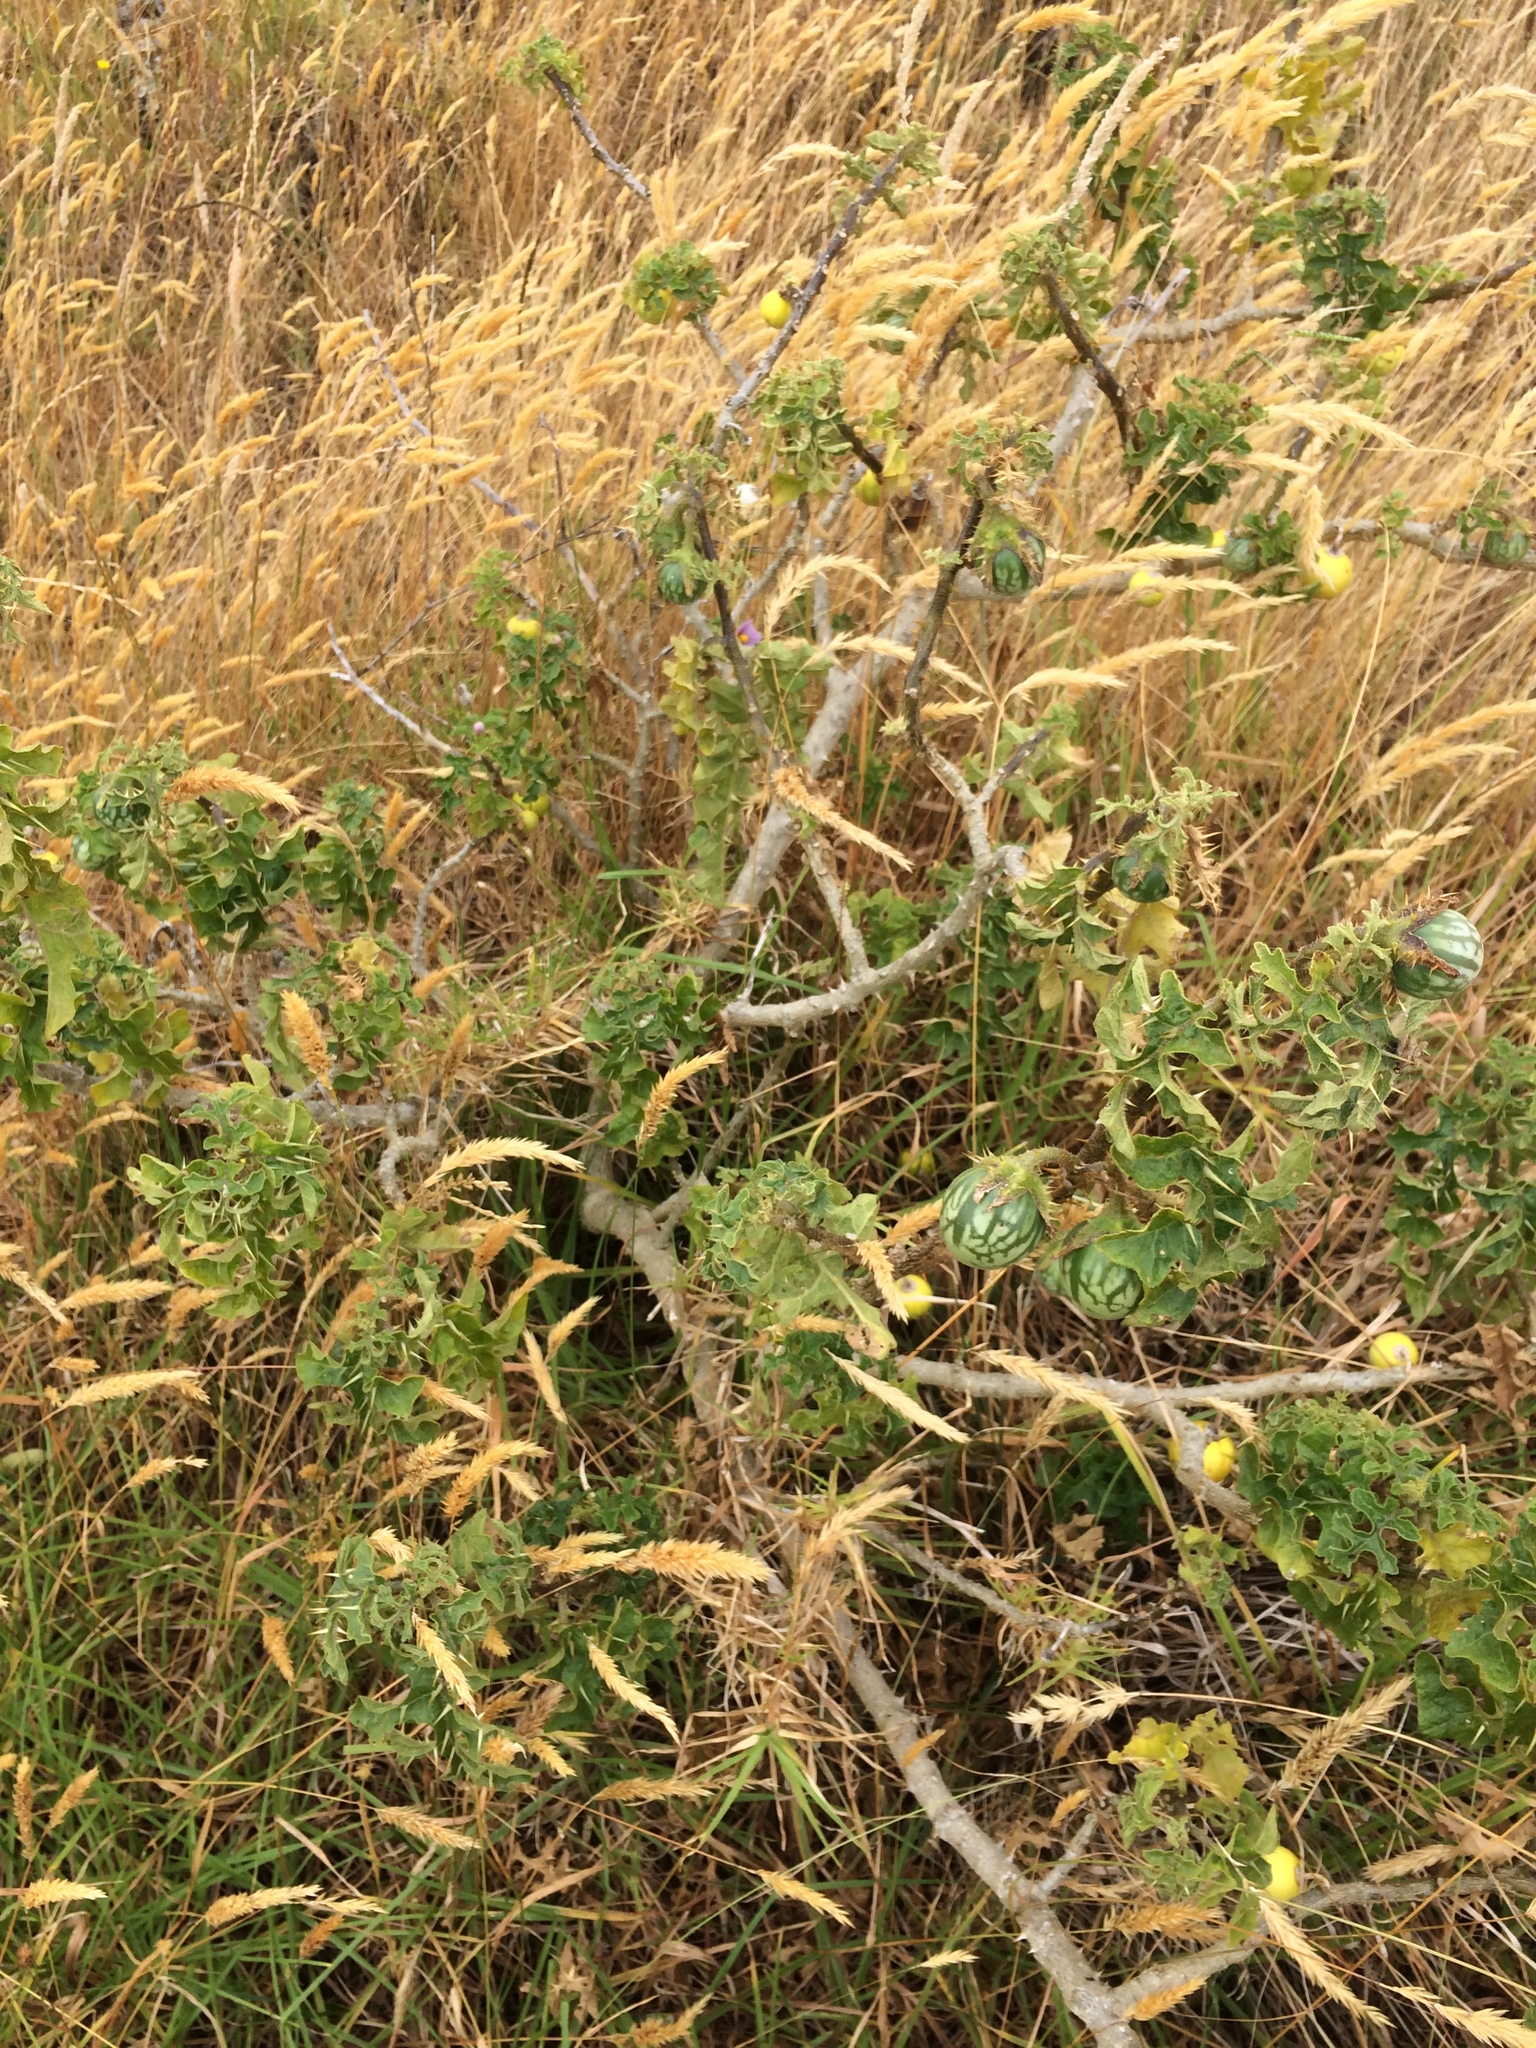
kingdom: Plantae
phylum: Tracheophyta
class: Magnoliopsida
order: Solanales
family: Solanaceae
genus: Solanum
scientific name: Solanum linnaeanum
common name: Nightshade
